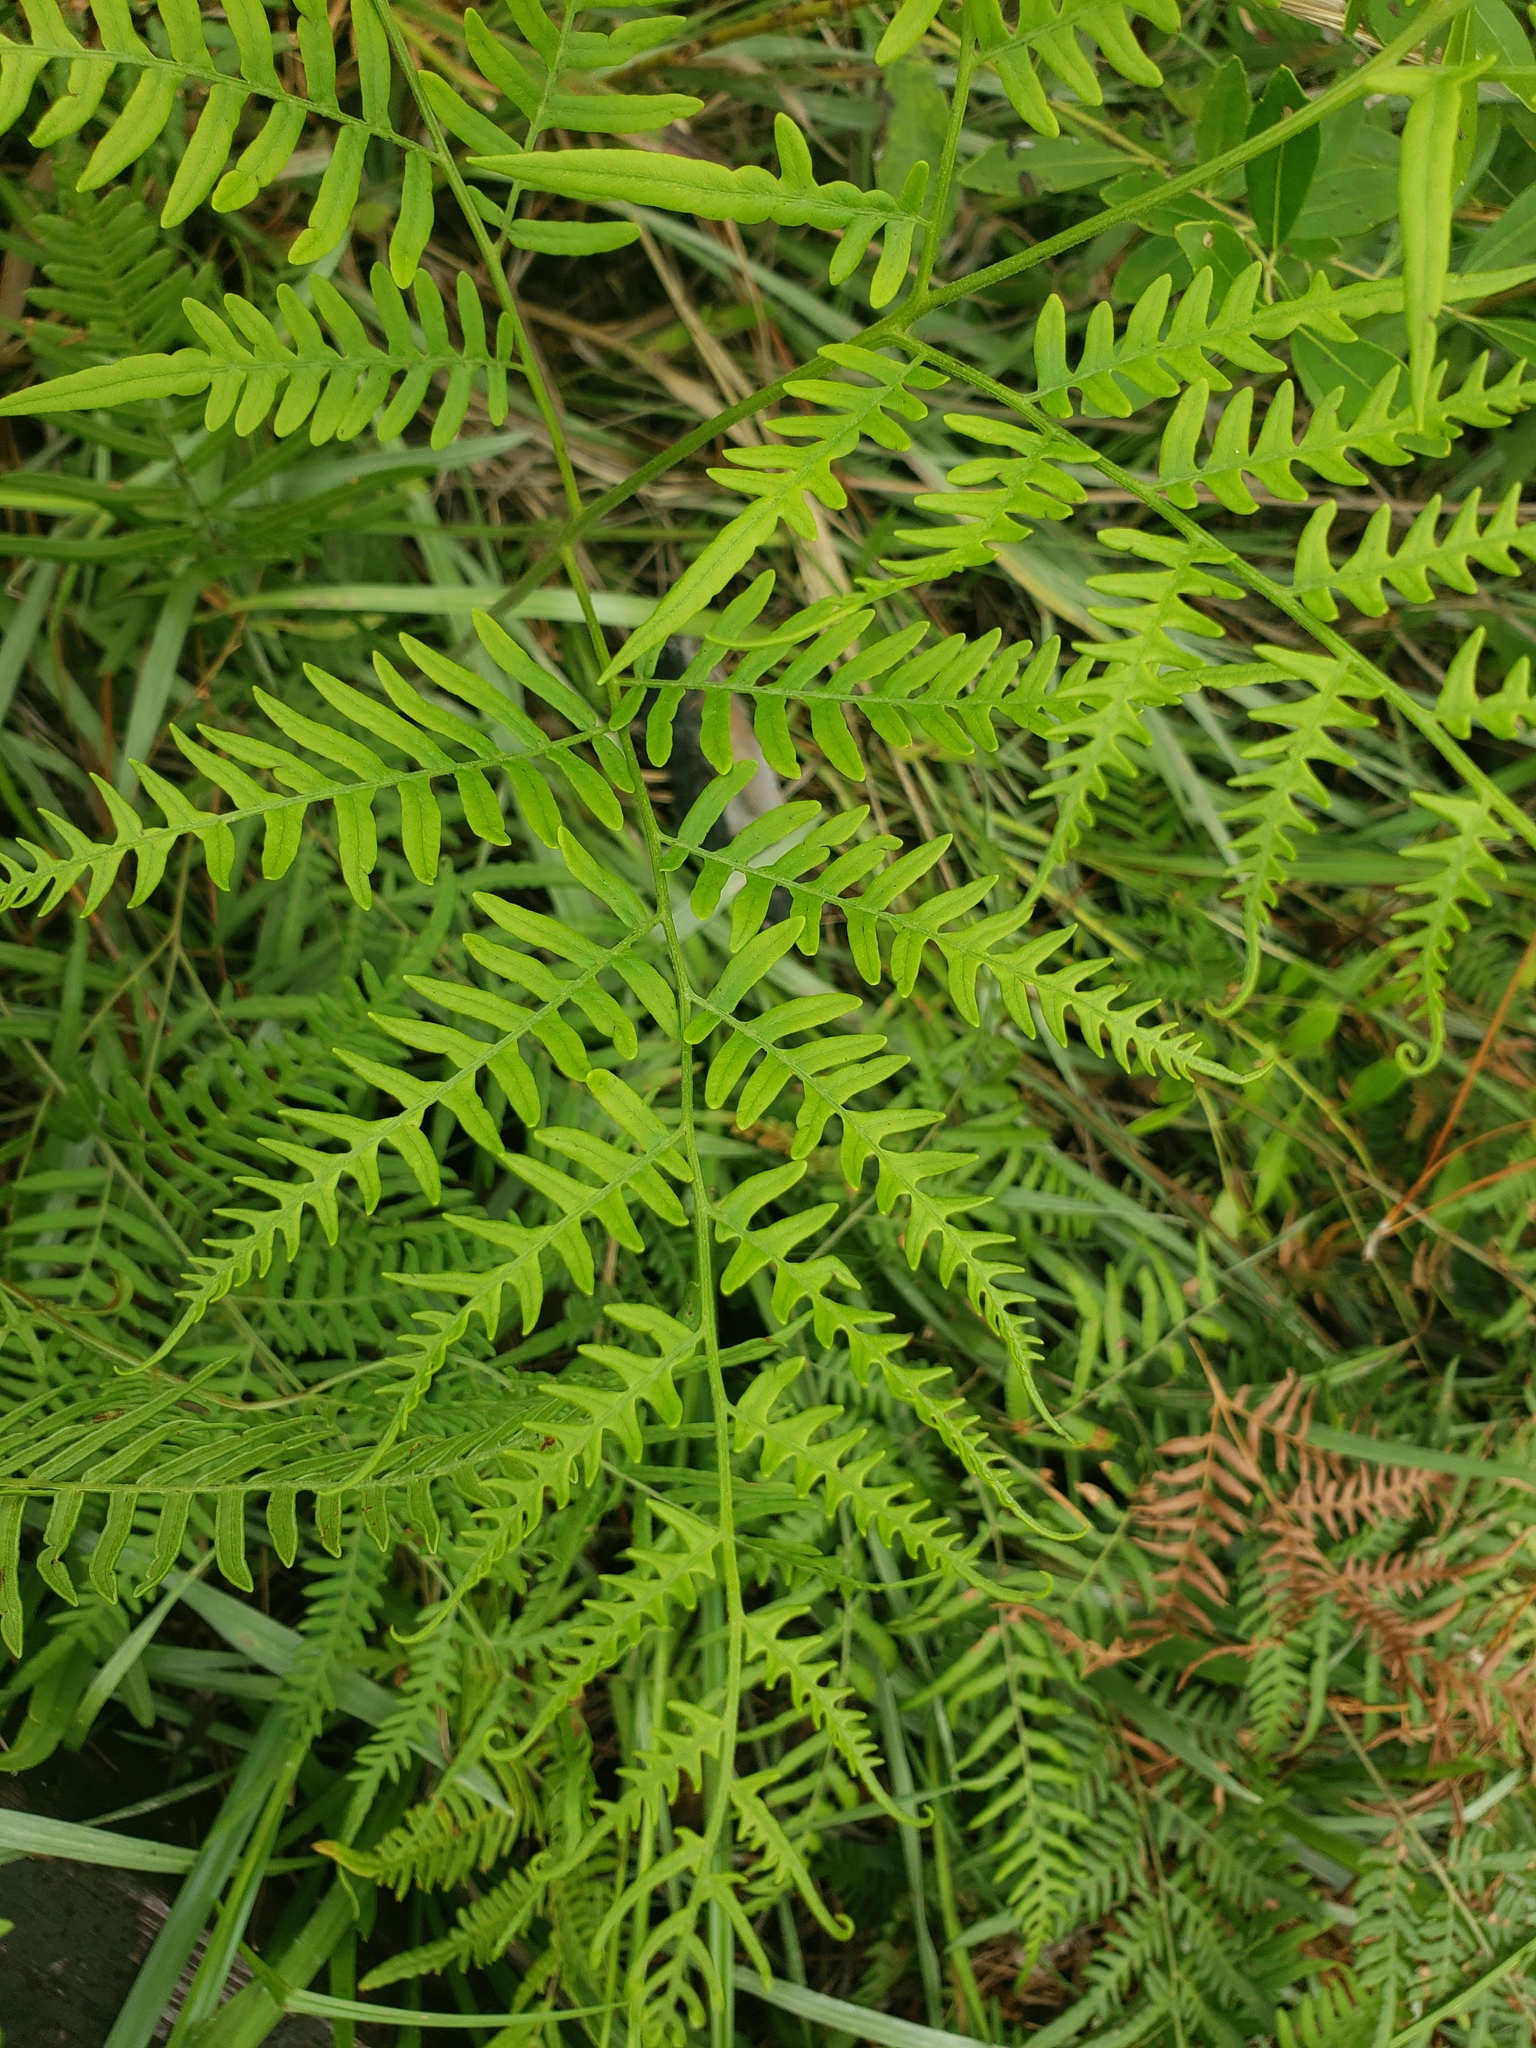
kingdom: Plantae
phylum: Tracheophyta
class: Polypodiopsida
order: Polypodiales
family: Dennstaedtiaceae
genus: Pteridium
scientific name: Pteridium
